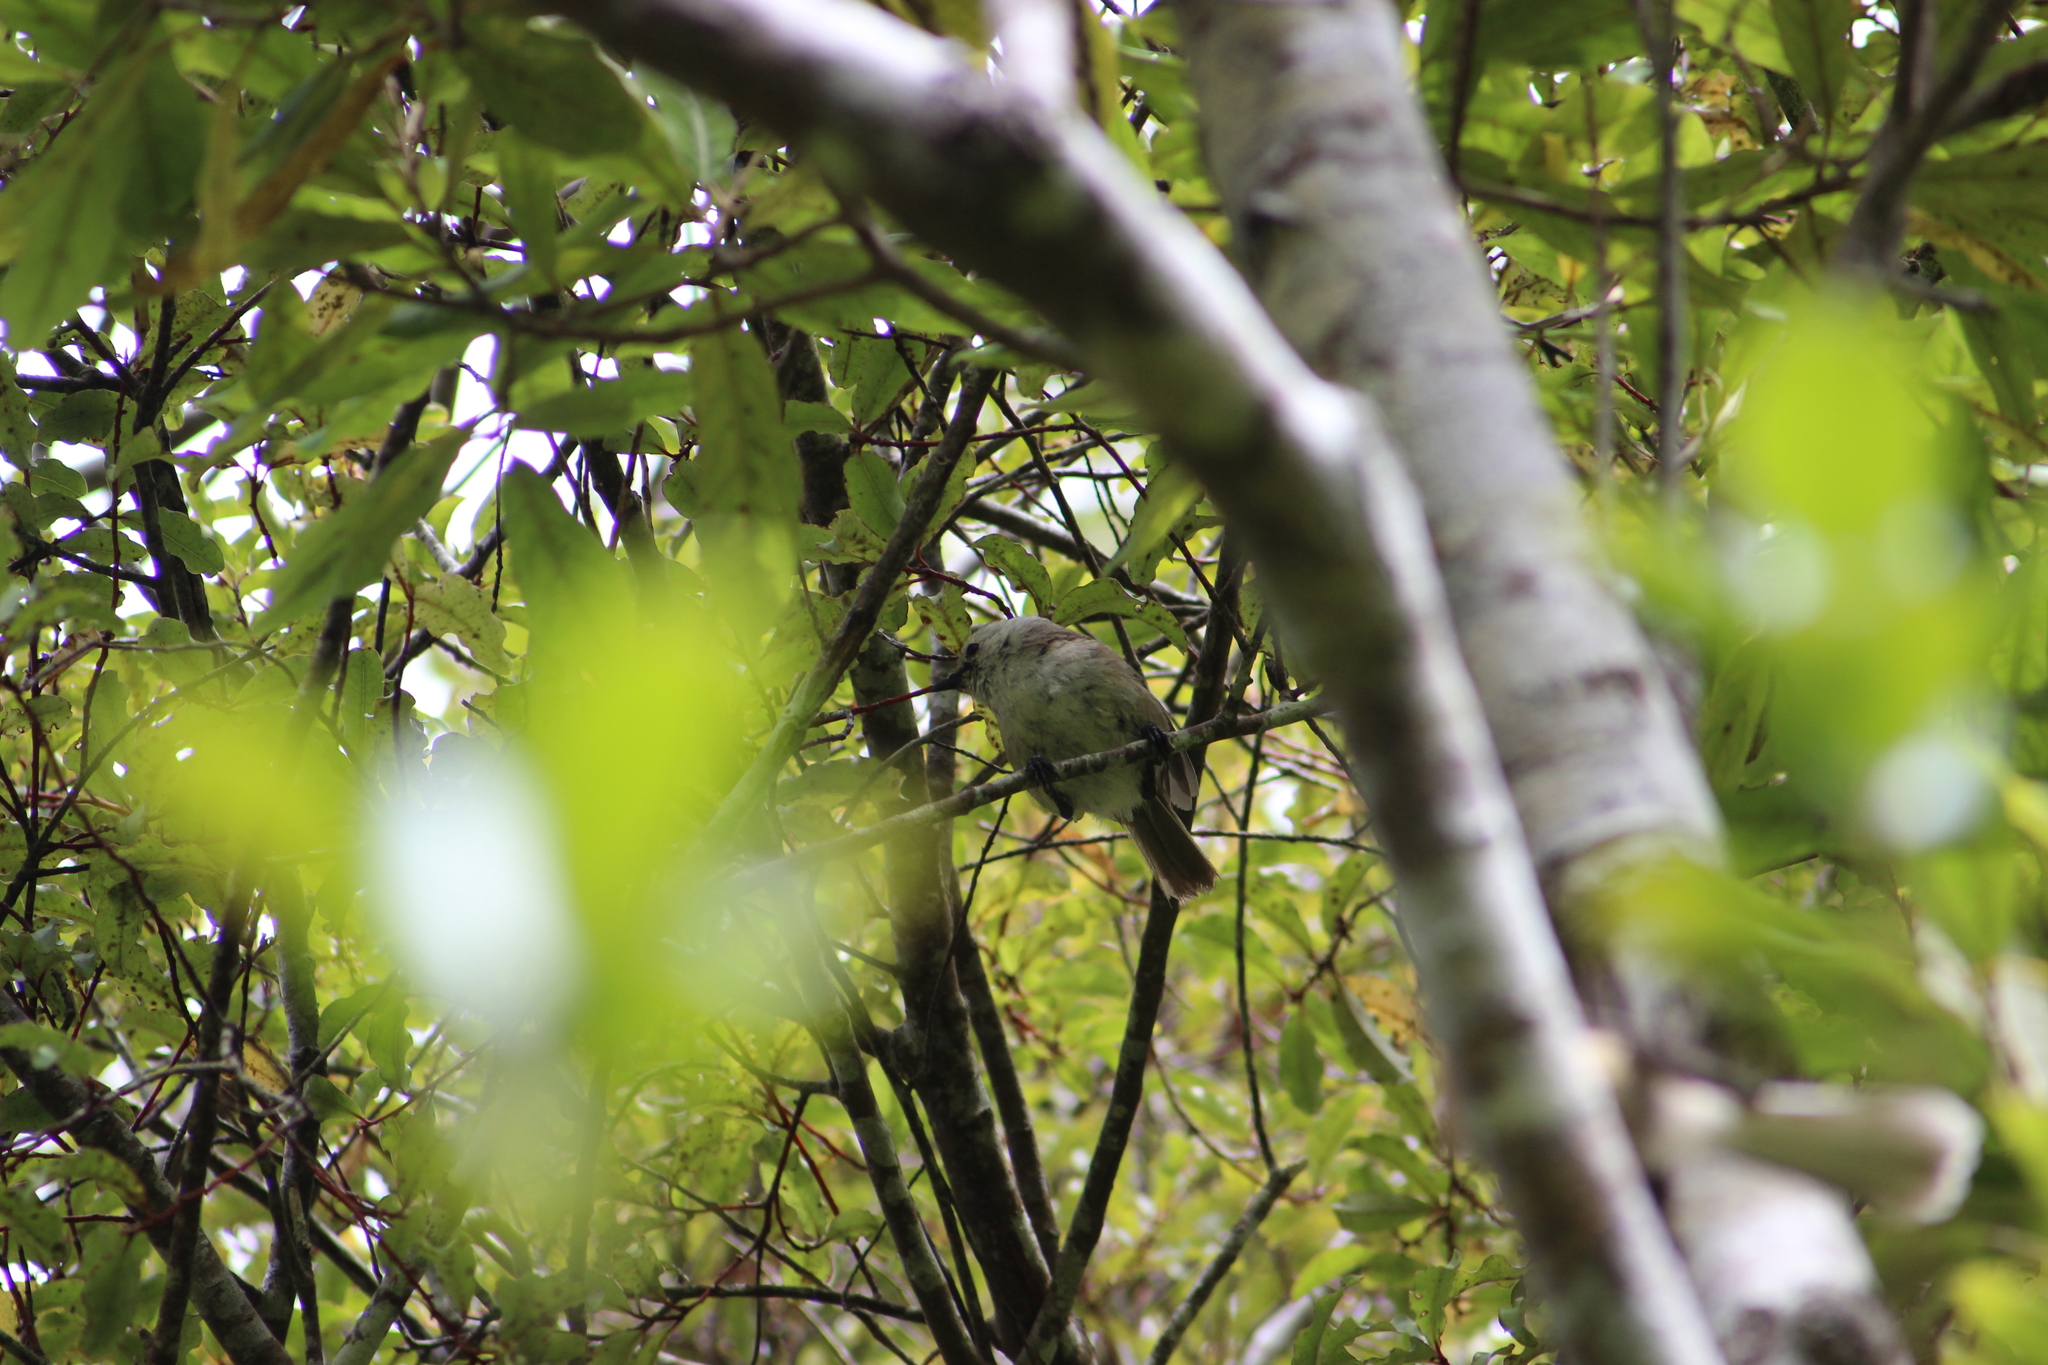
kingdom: Animalia
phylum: Chordata
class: Aves
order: Passeriformes
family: Acanthizidae
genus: Mohoua
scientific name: Mohoua albicilla
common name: Whitehead
